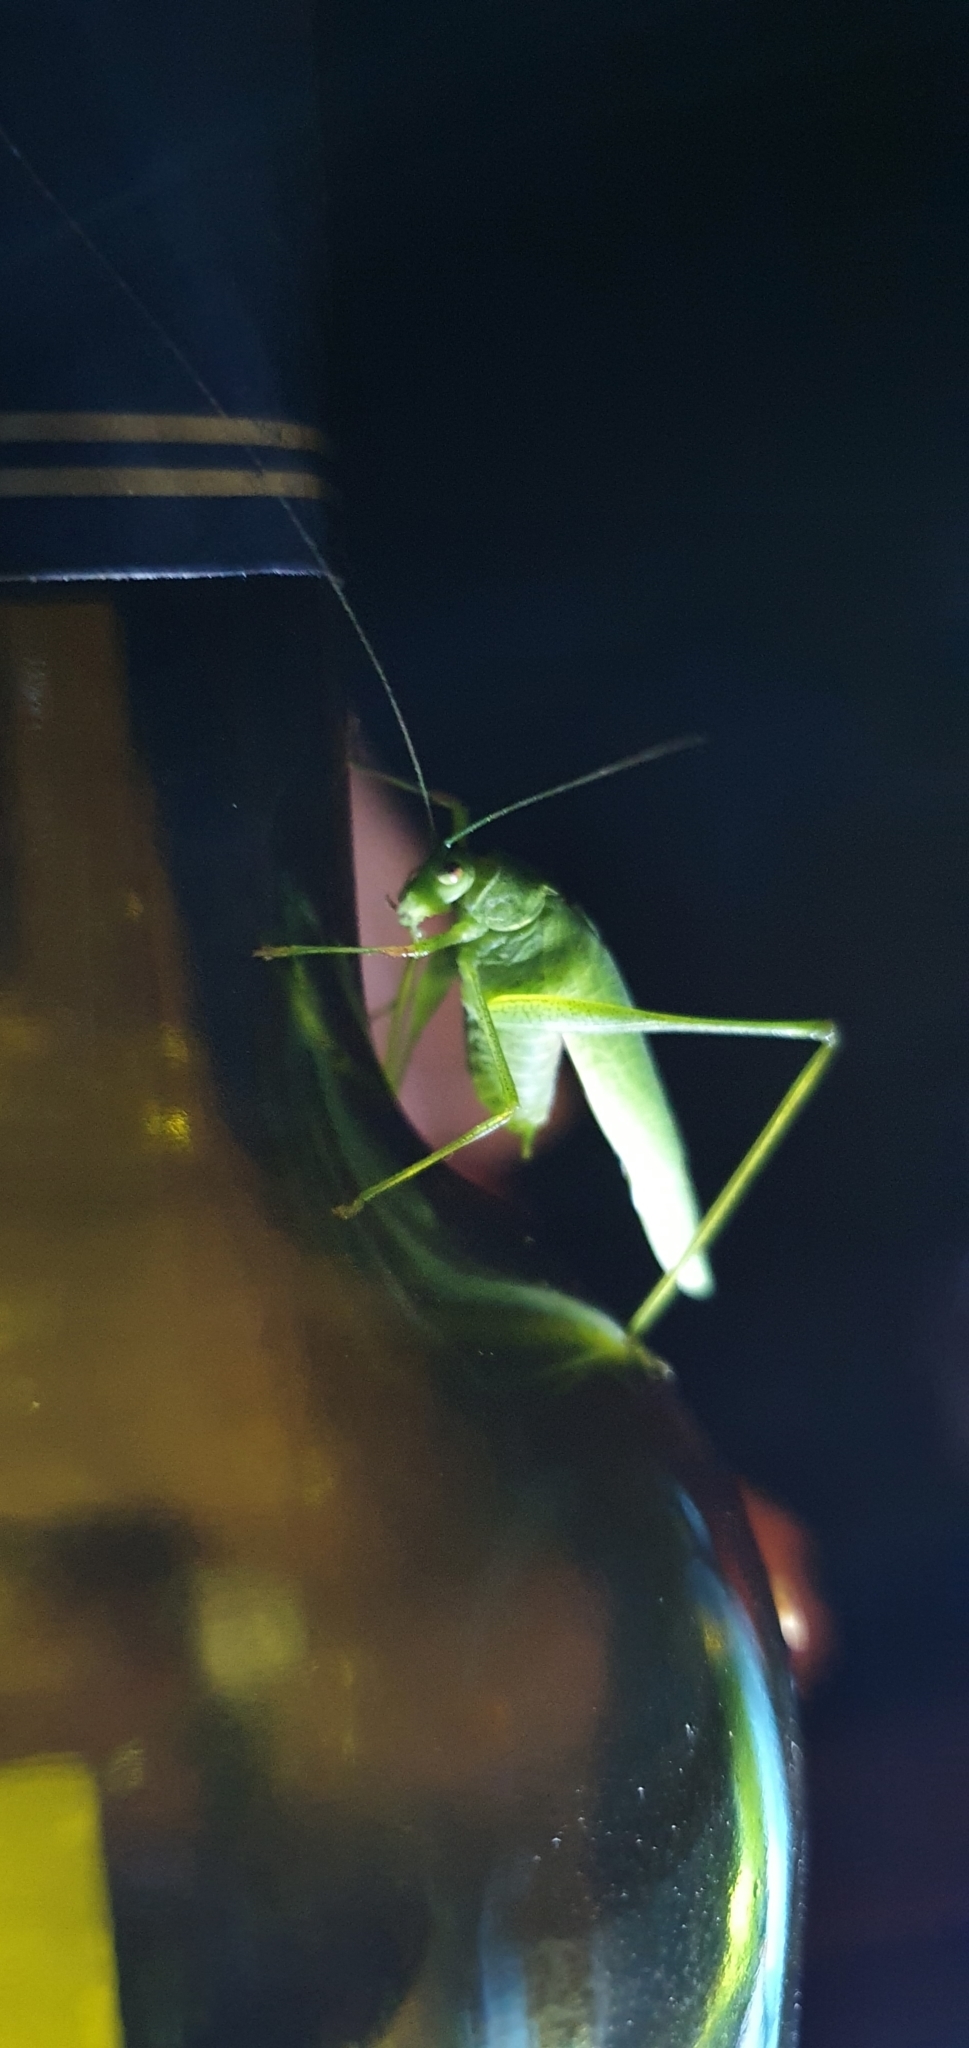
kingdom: Animalia
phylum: Arthropoda
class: Insecta
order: Orthoptera
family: Tettigoniidae
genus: Phaneroptera
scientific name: Phaneroptera nana
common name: Southern sickle bush-cricket
